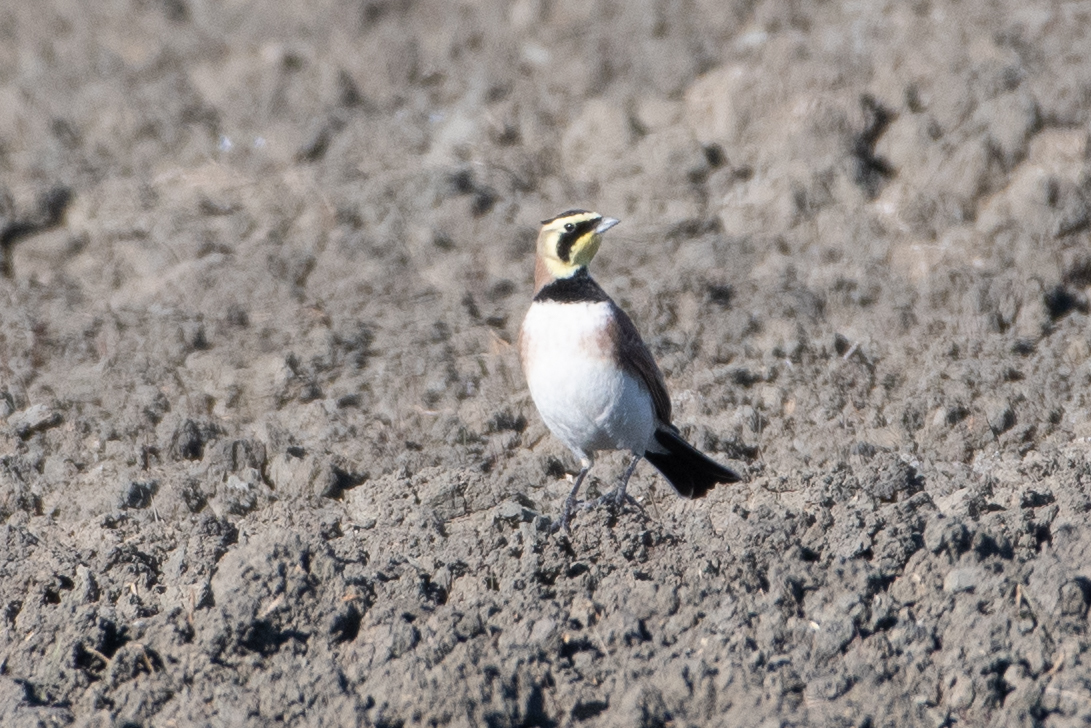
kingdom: Animalia
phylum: Chordata
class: Aves
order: Passeriformes
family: Alaudidae
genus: Eremophila
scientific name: Eremophila alpestris
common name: Horned lark
